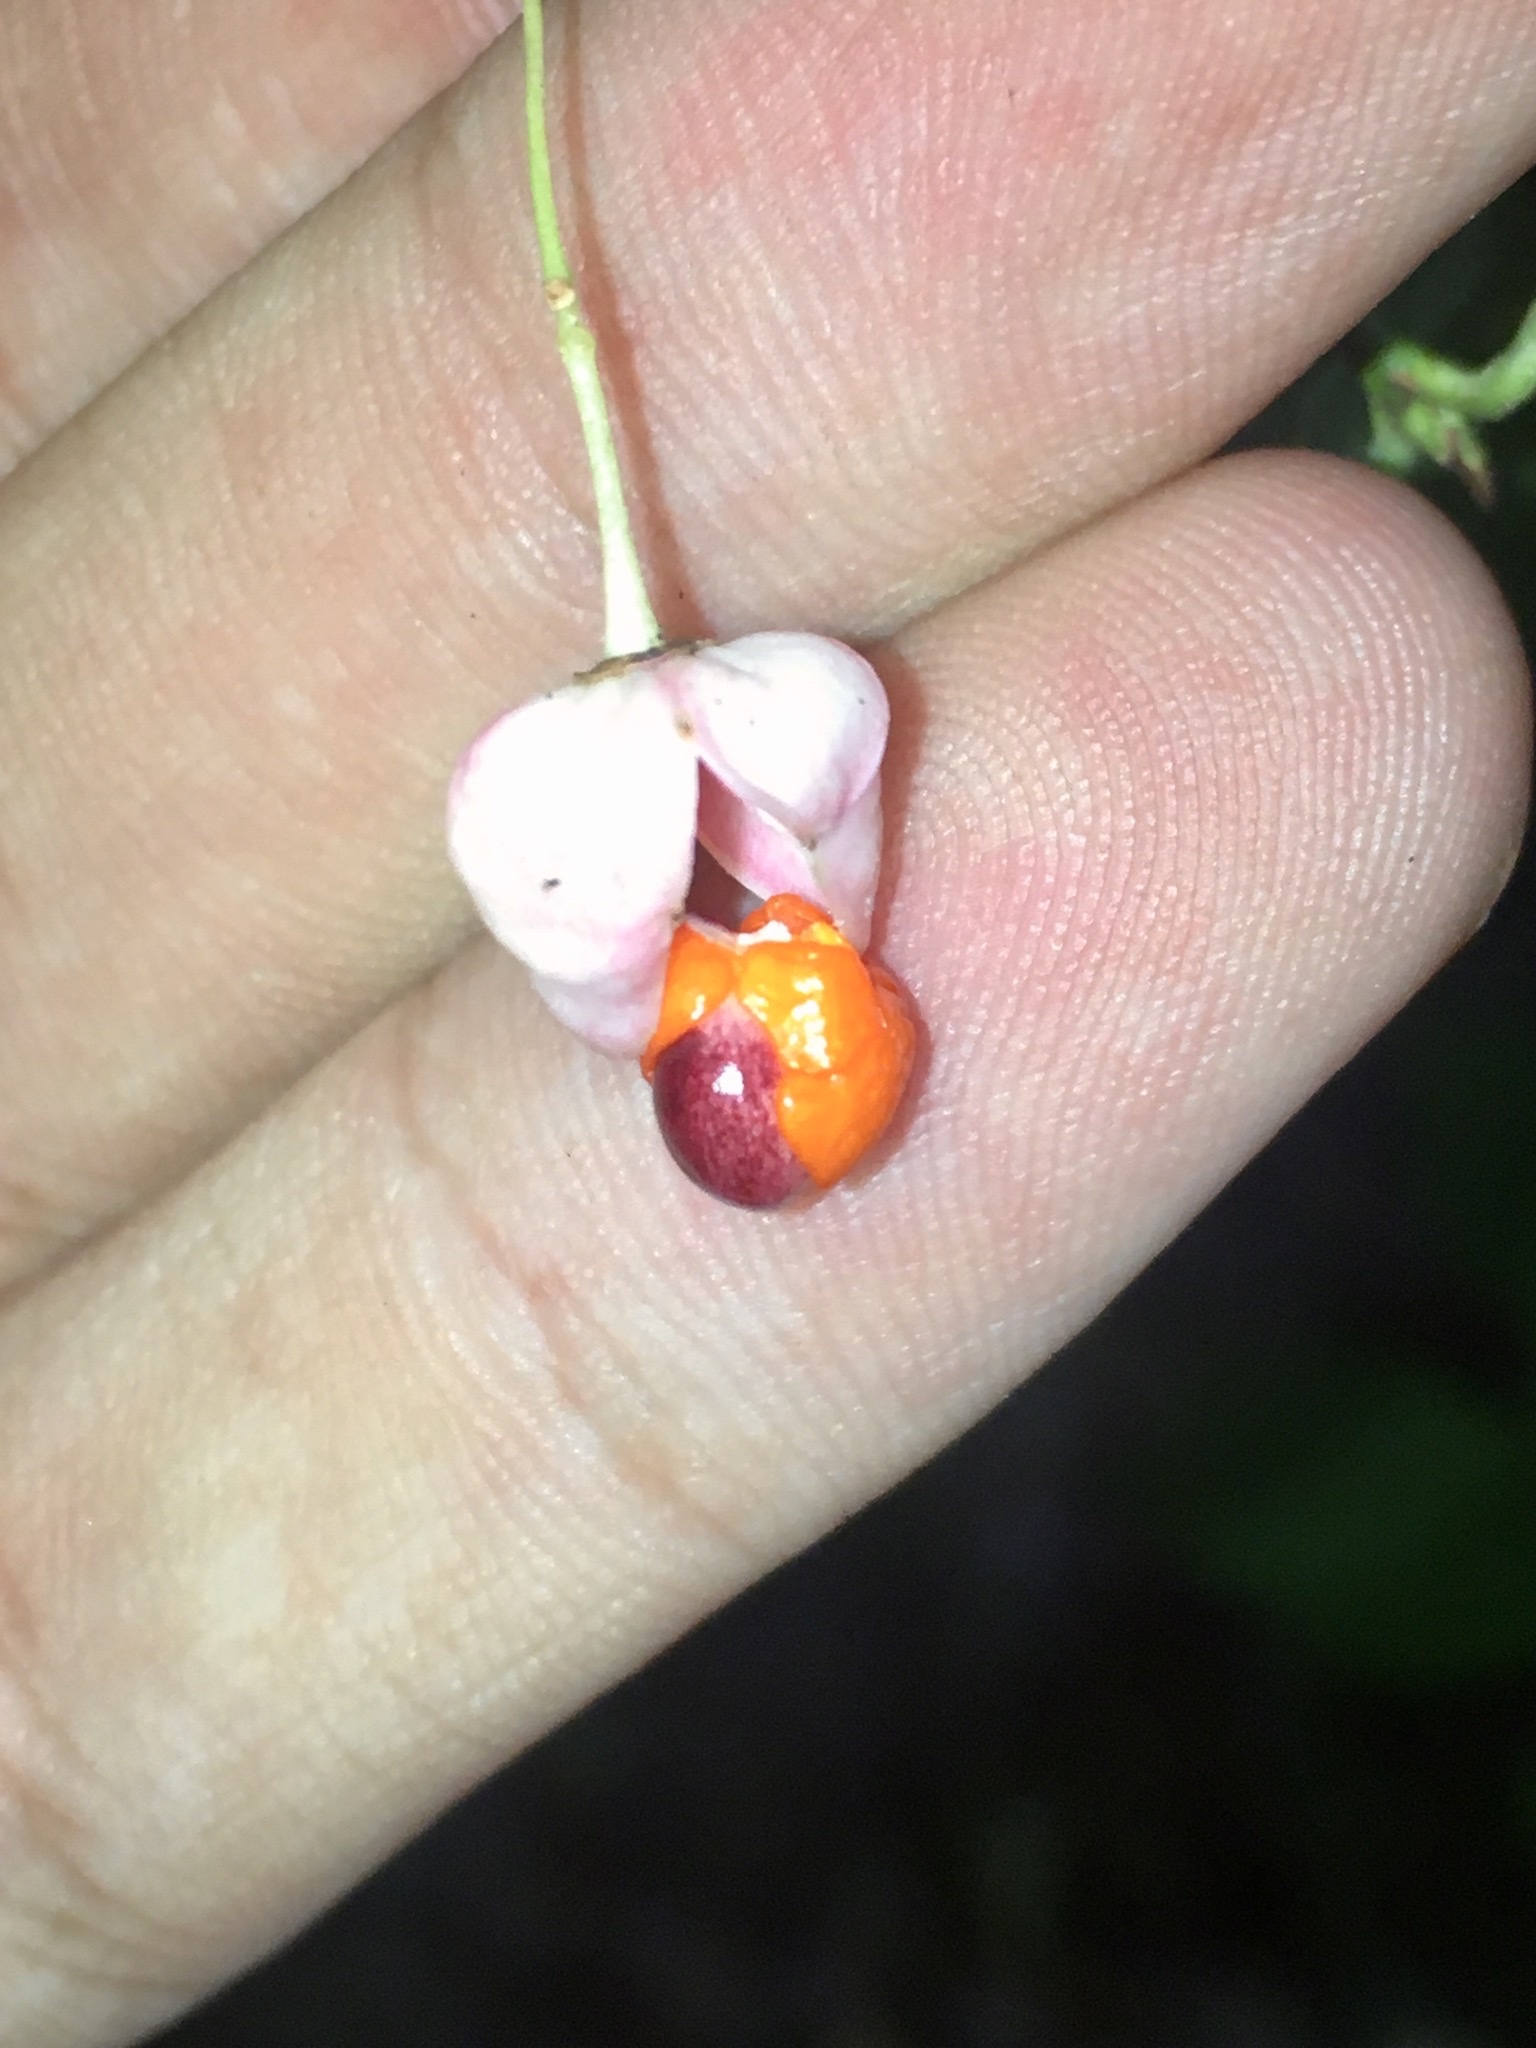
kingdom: Plantae
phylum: Tracheophyta
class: Magnoliopsida
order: Celastrales
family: Celastraceae
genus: Euonymus
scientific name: Euonymus verrucosus
